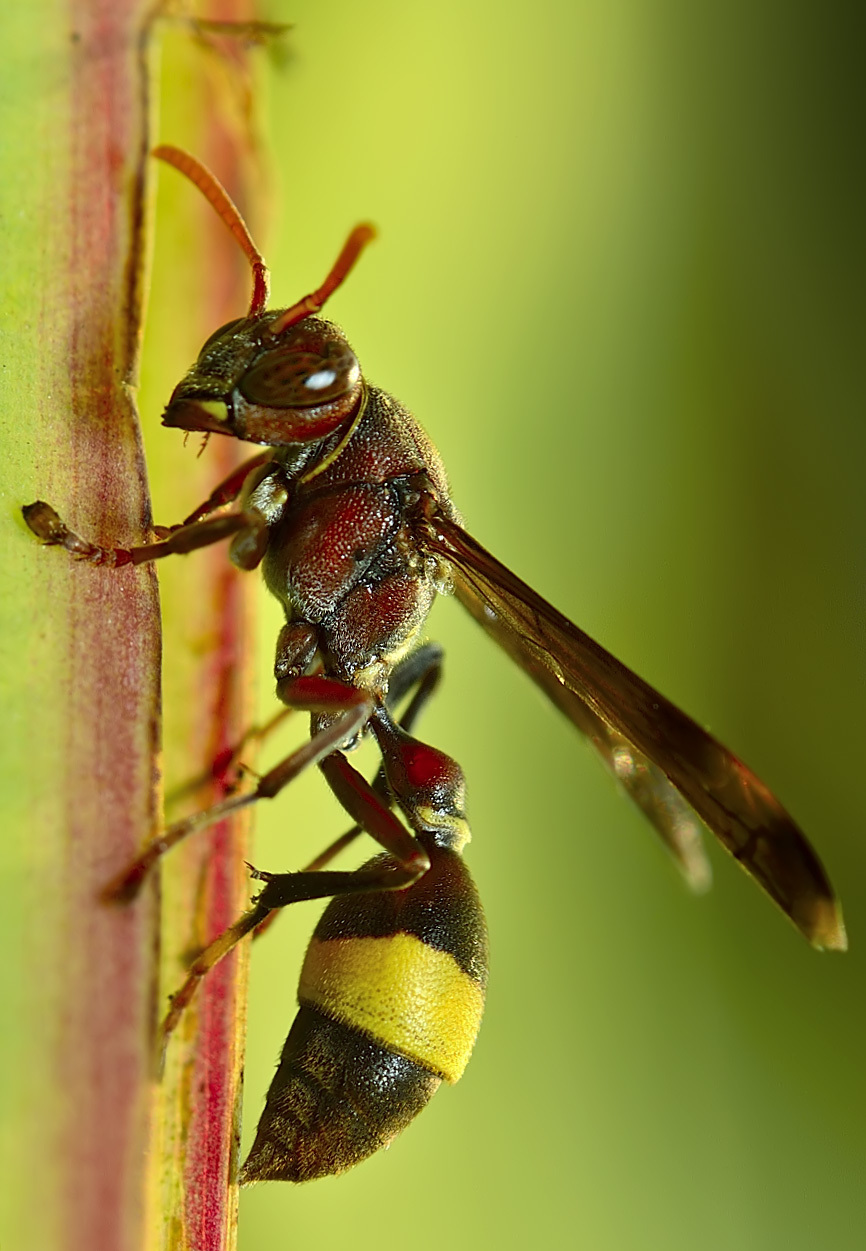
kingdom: Animalia
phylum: Arthropoda
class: Insecta
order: Hymenoptera
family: Vespidae
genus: Ropalidia
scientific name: Ropalidia
